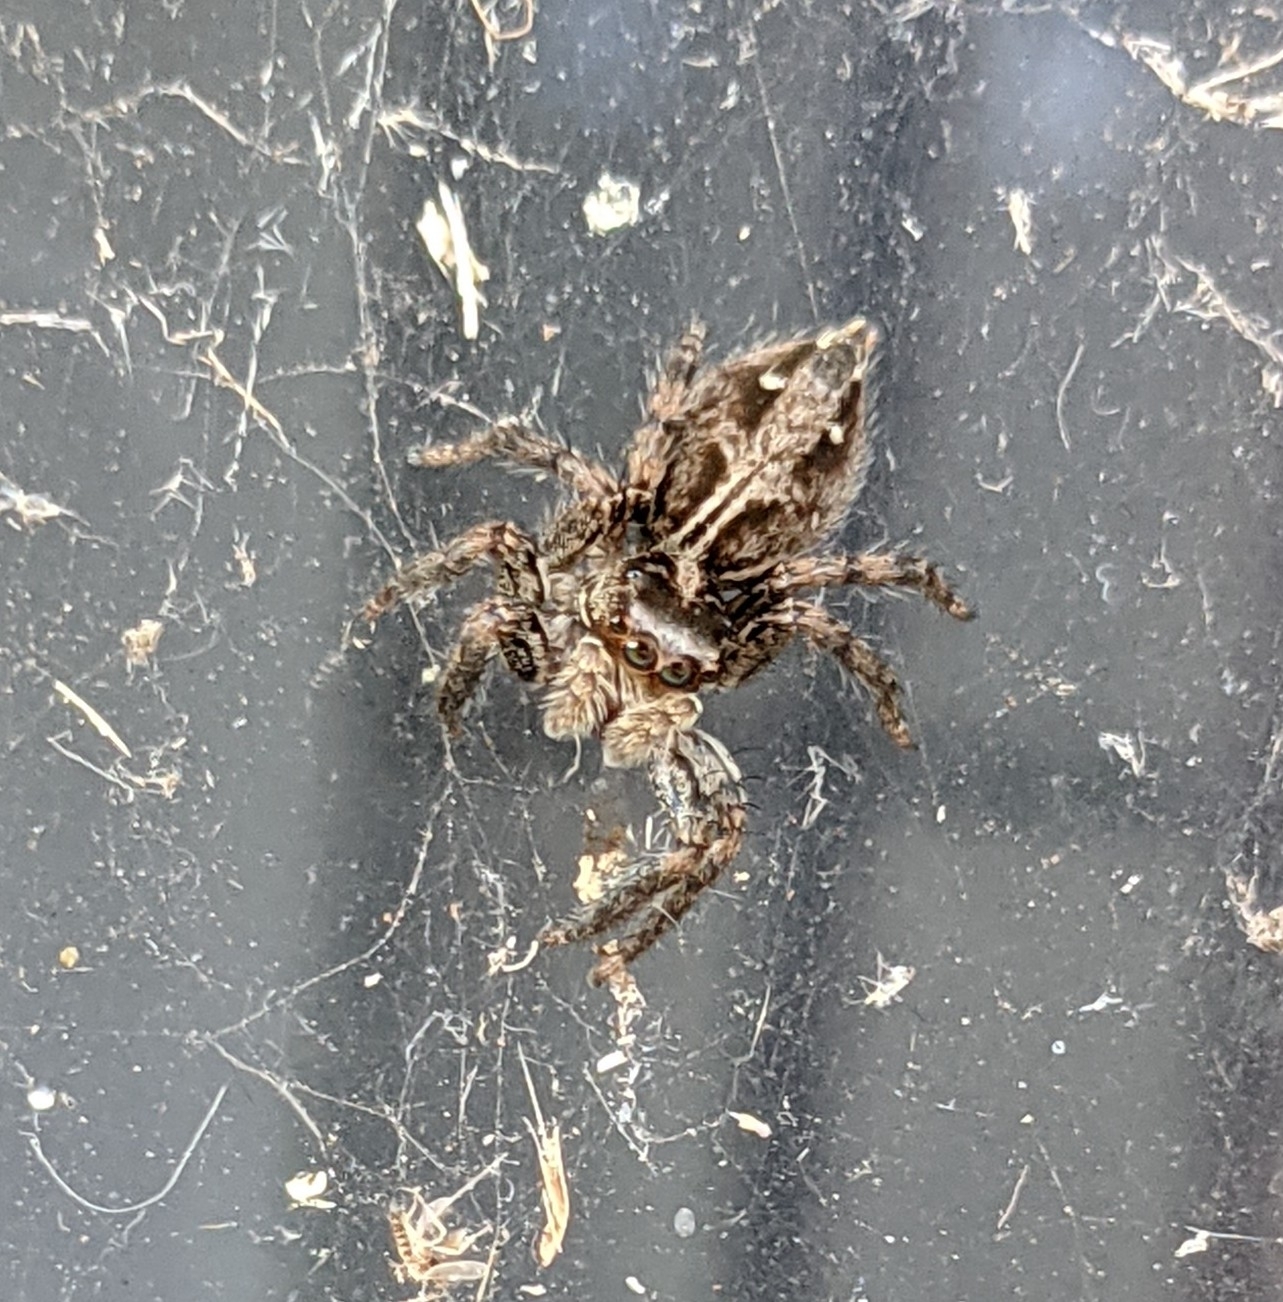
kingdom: Animalia
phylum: Arthropoda
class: Arachnida
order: Araneae
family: Salticidae
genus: Plexippus
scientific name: Plexippus paykulli
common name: Pantropical jumper
